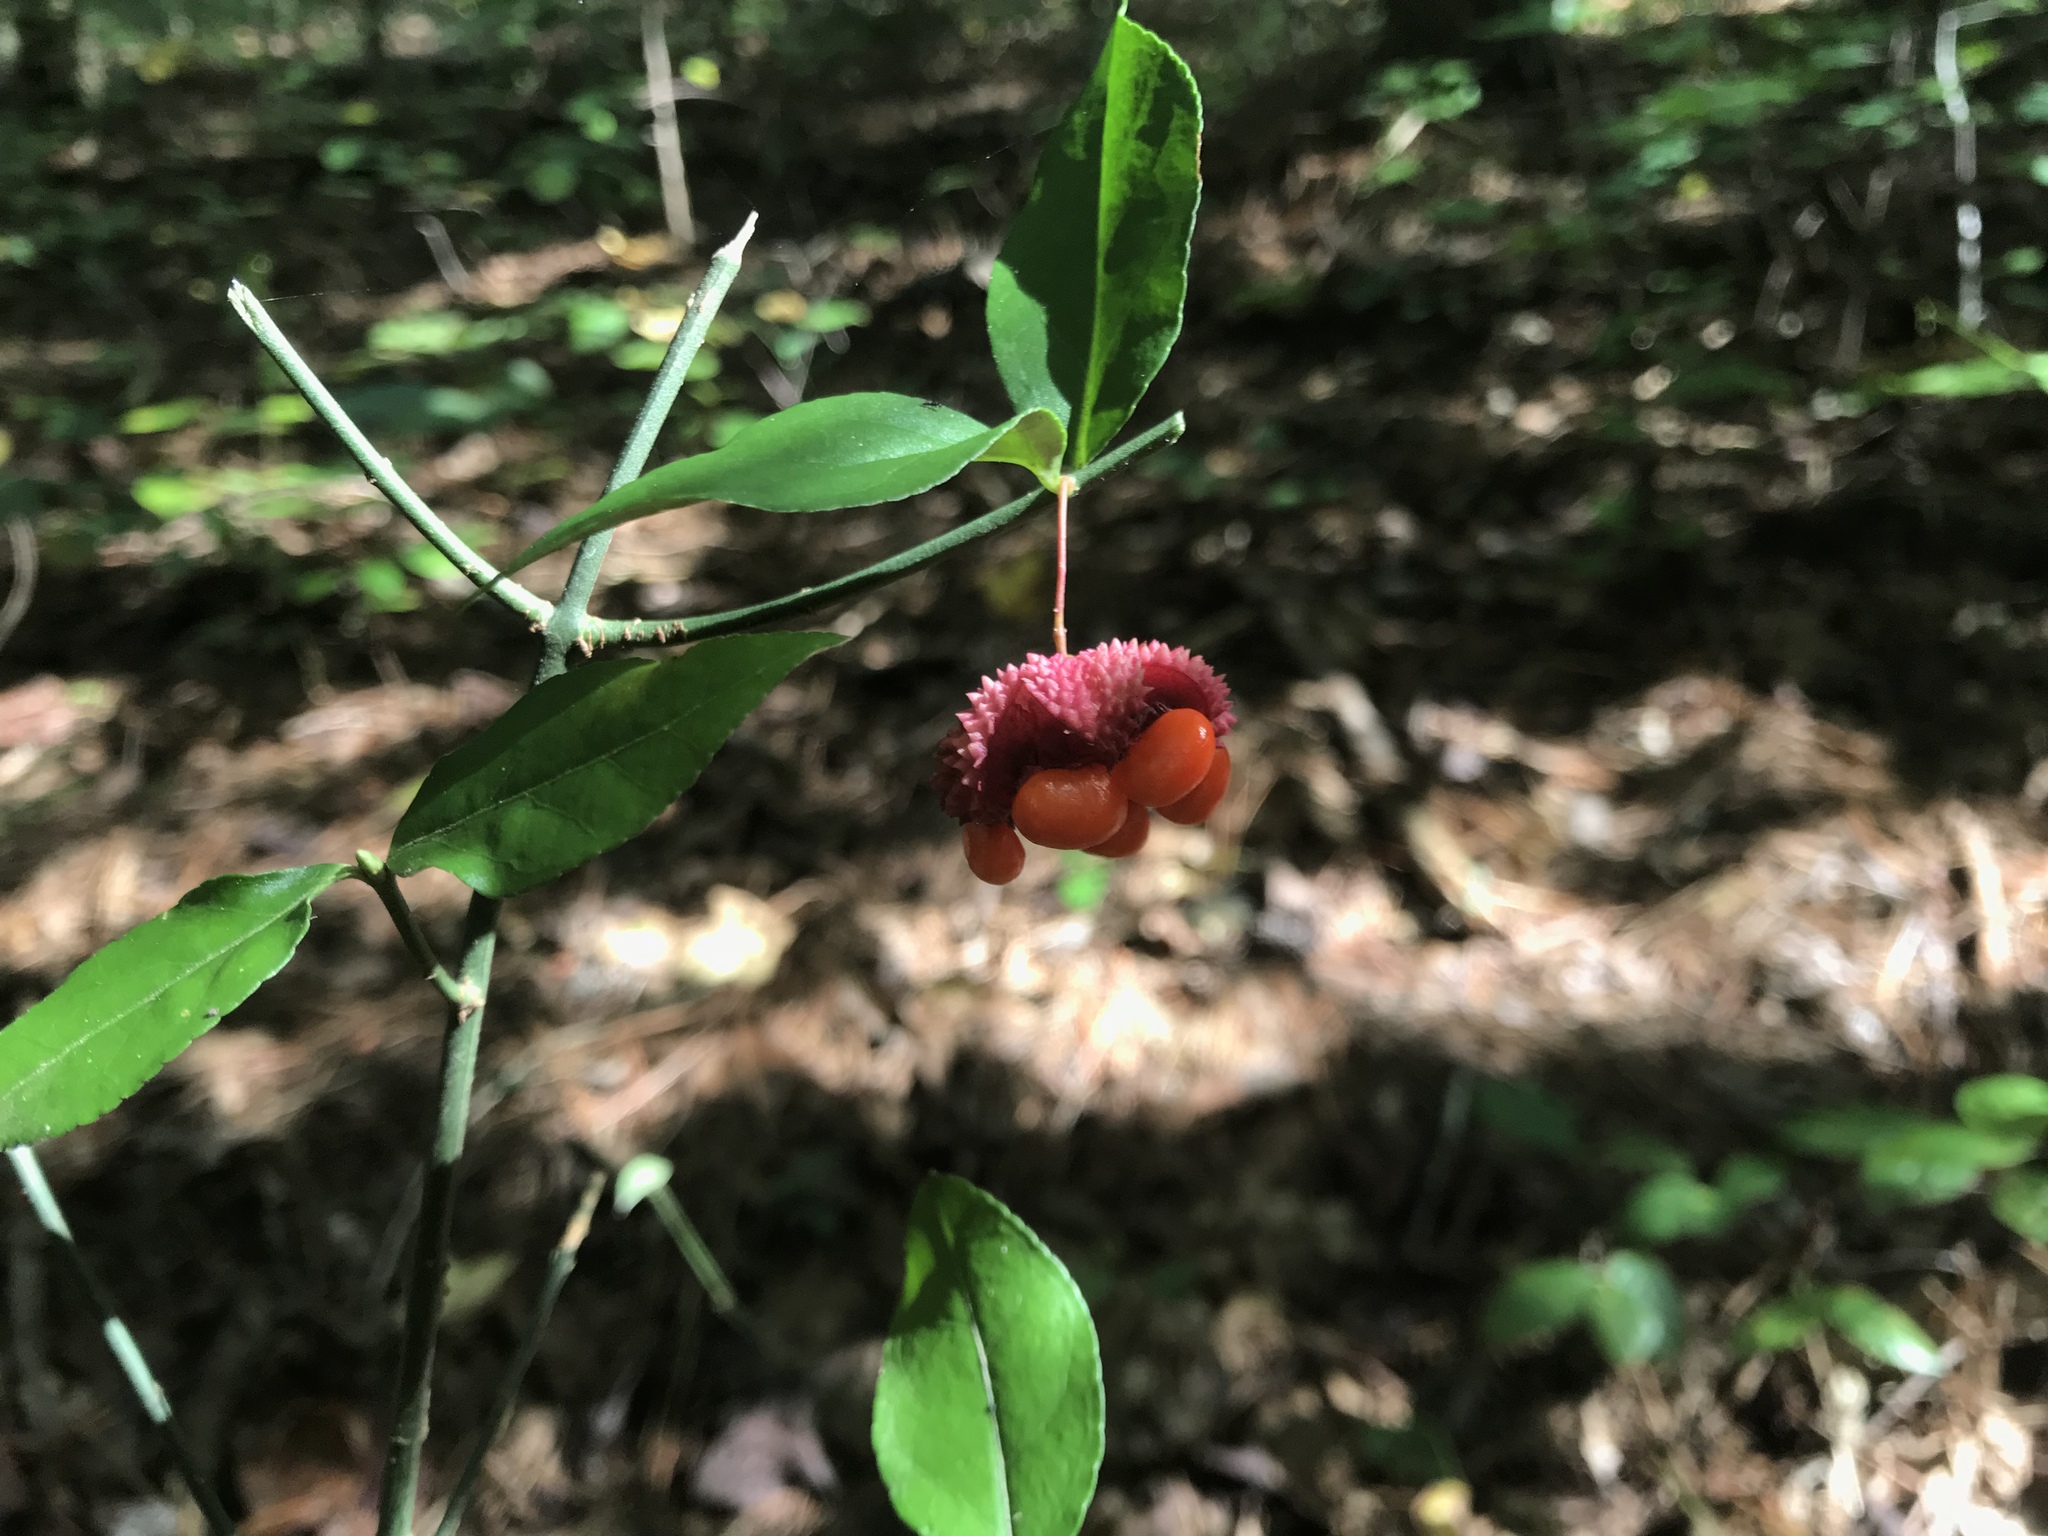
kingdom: Plantae
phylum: Tracheophyta
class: Magnoliopsida
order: Celastrales
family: Celastraceae
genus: Euonymus
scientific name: Euonymus americanus
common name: Bursting-heart
